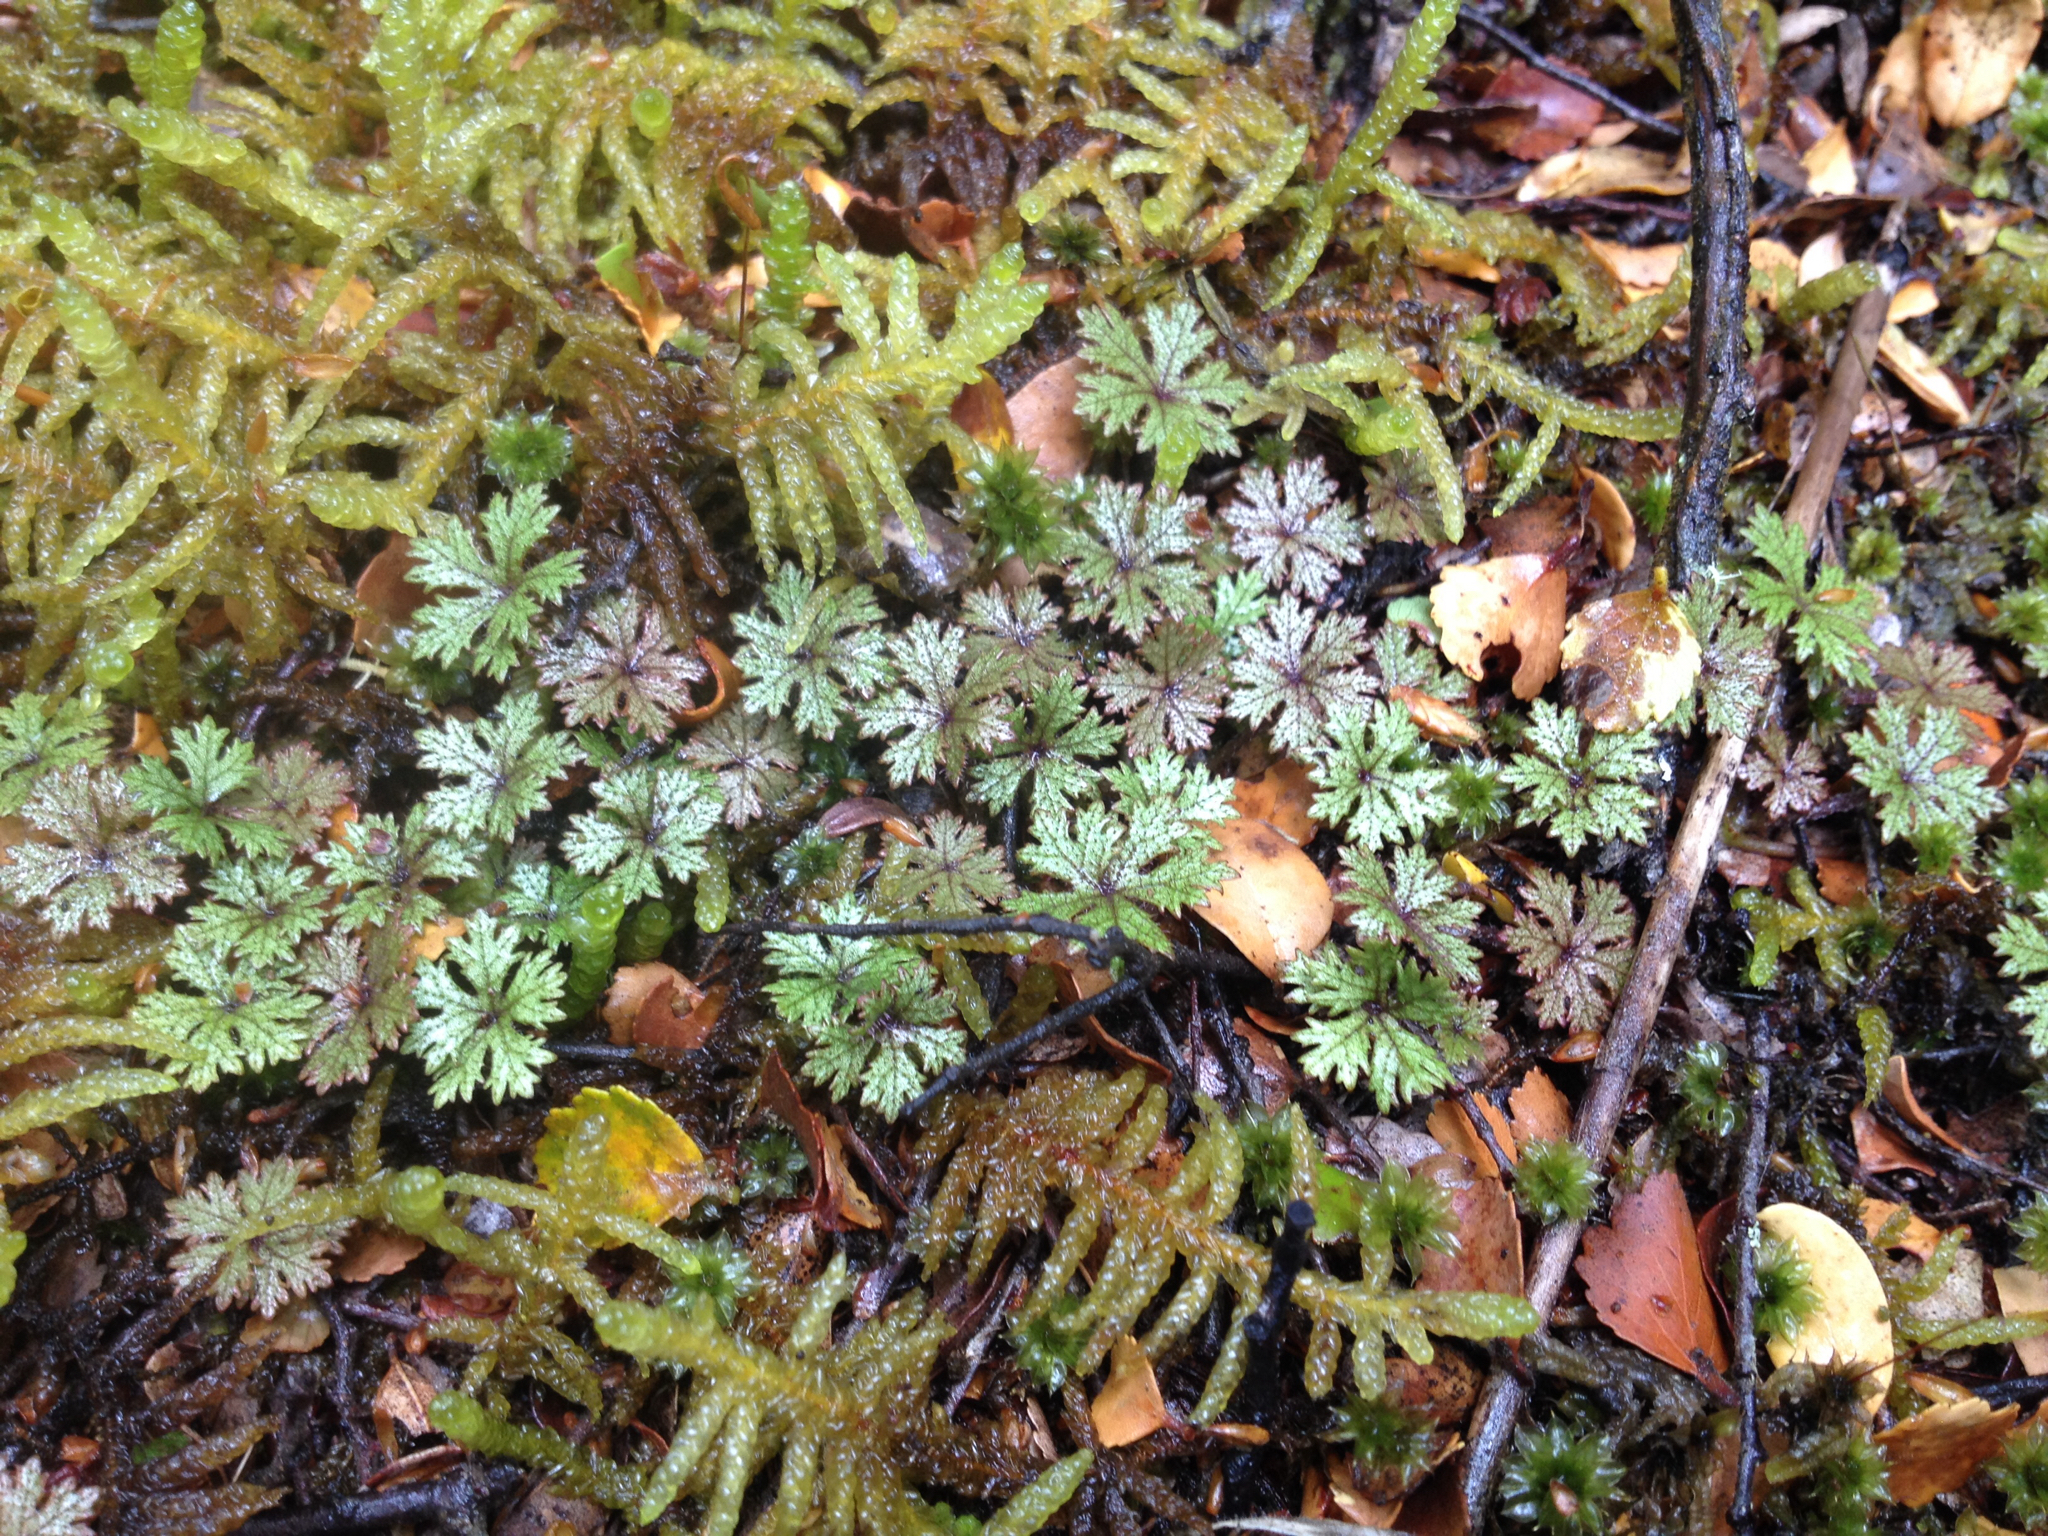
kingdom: Plantae
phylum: Tracheophyta
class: Magnoliopsida
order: Apiales
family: Araliaceae
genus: Hydrocotyle
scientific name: Hydrocotyle dissecta
